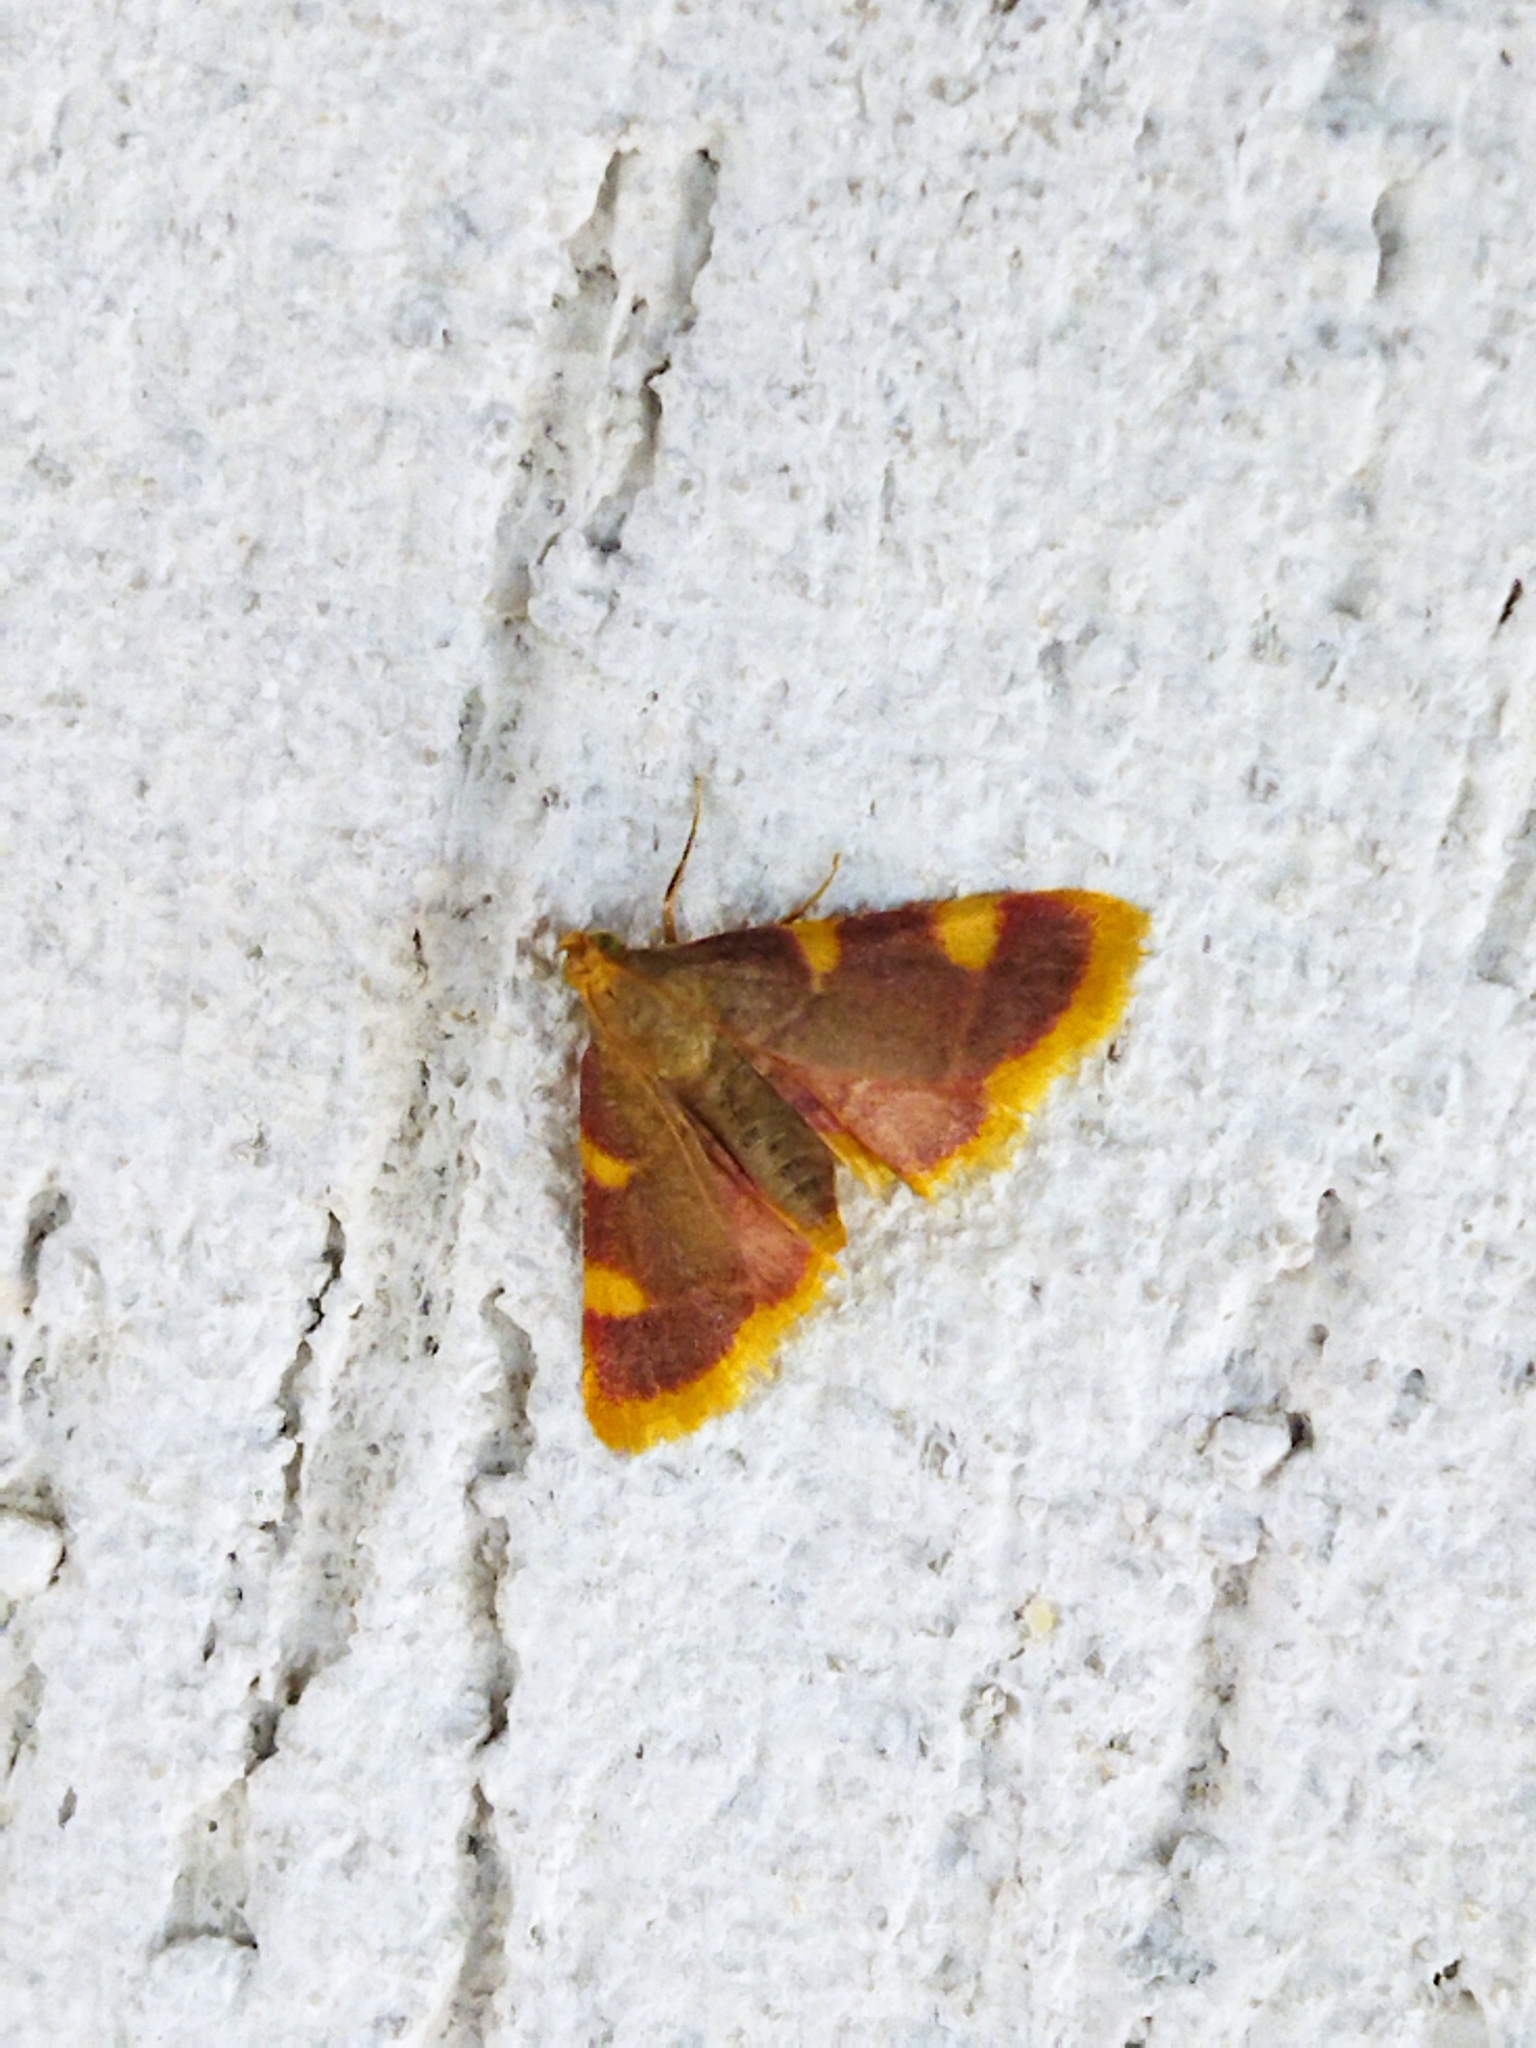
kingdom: Animalia
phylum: Arthropoda
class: Insecta
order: Lepidoptera
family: Pyralidae
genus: Hypsopygia
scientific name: Hypsopygia costalis
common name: Gold triangle
